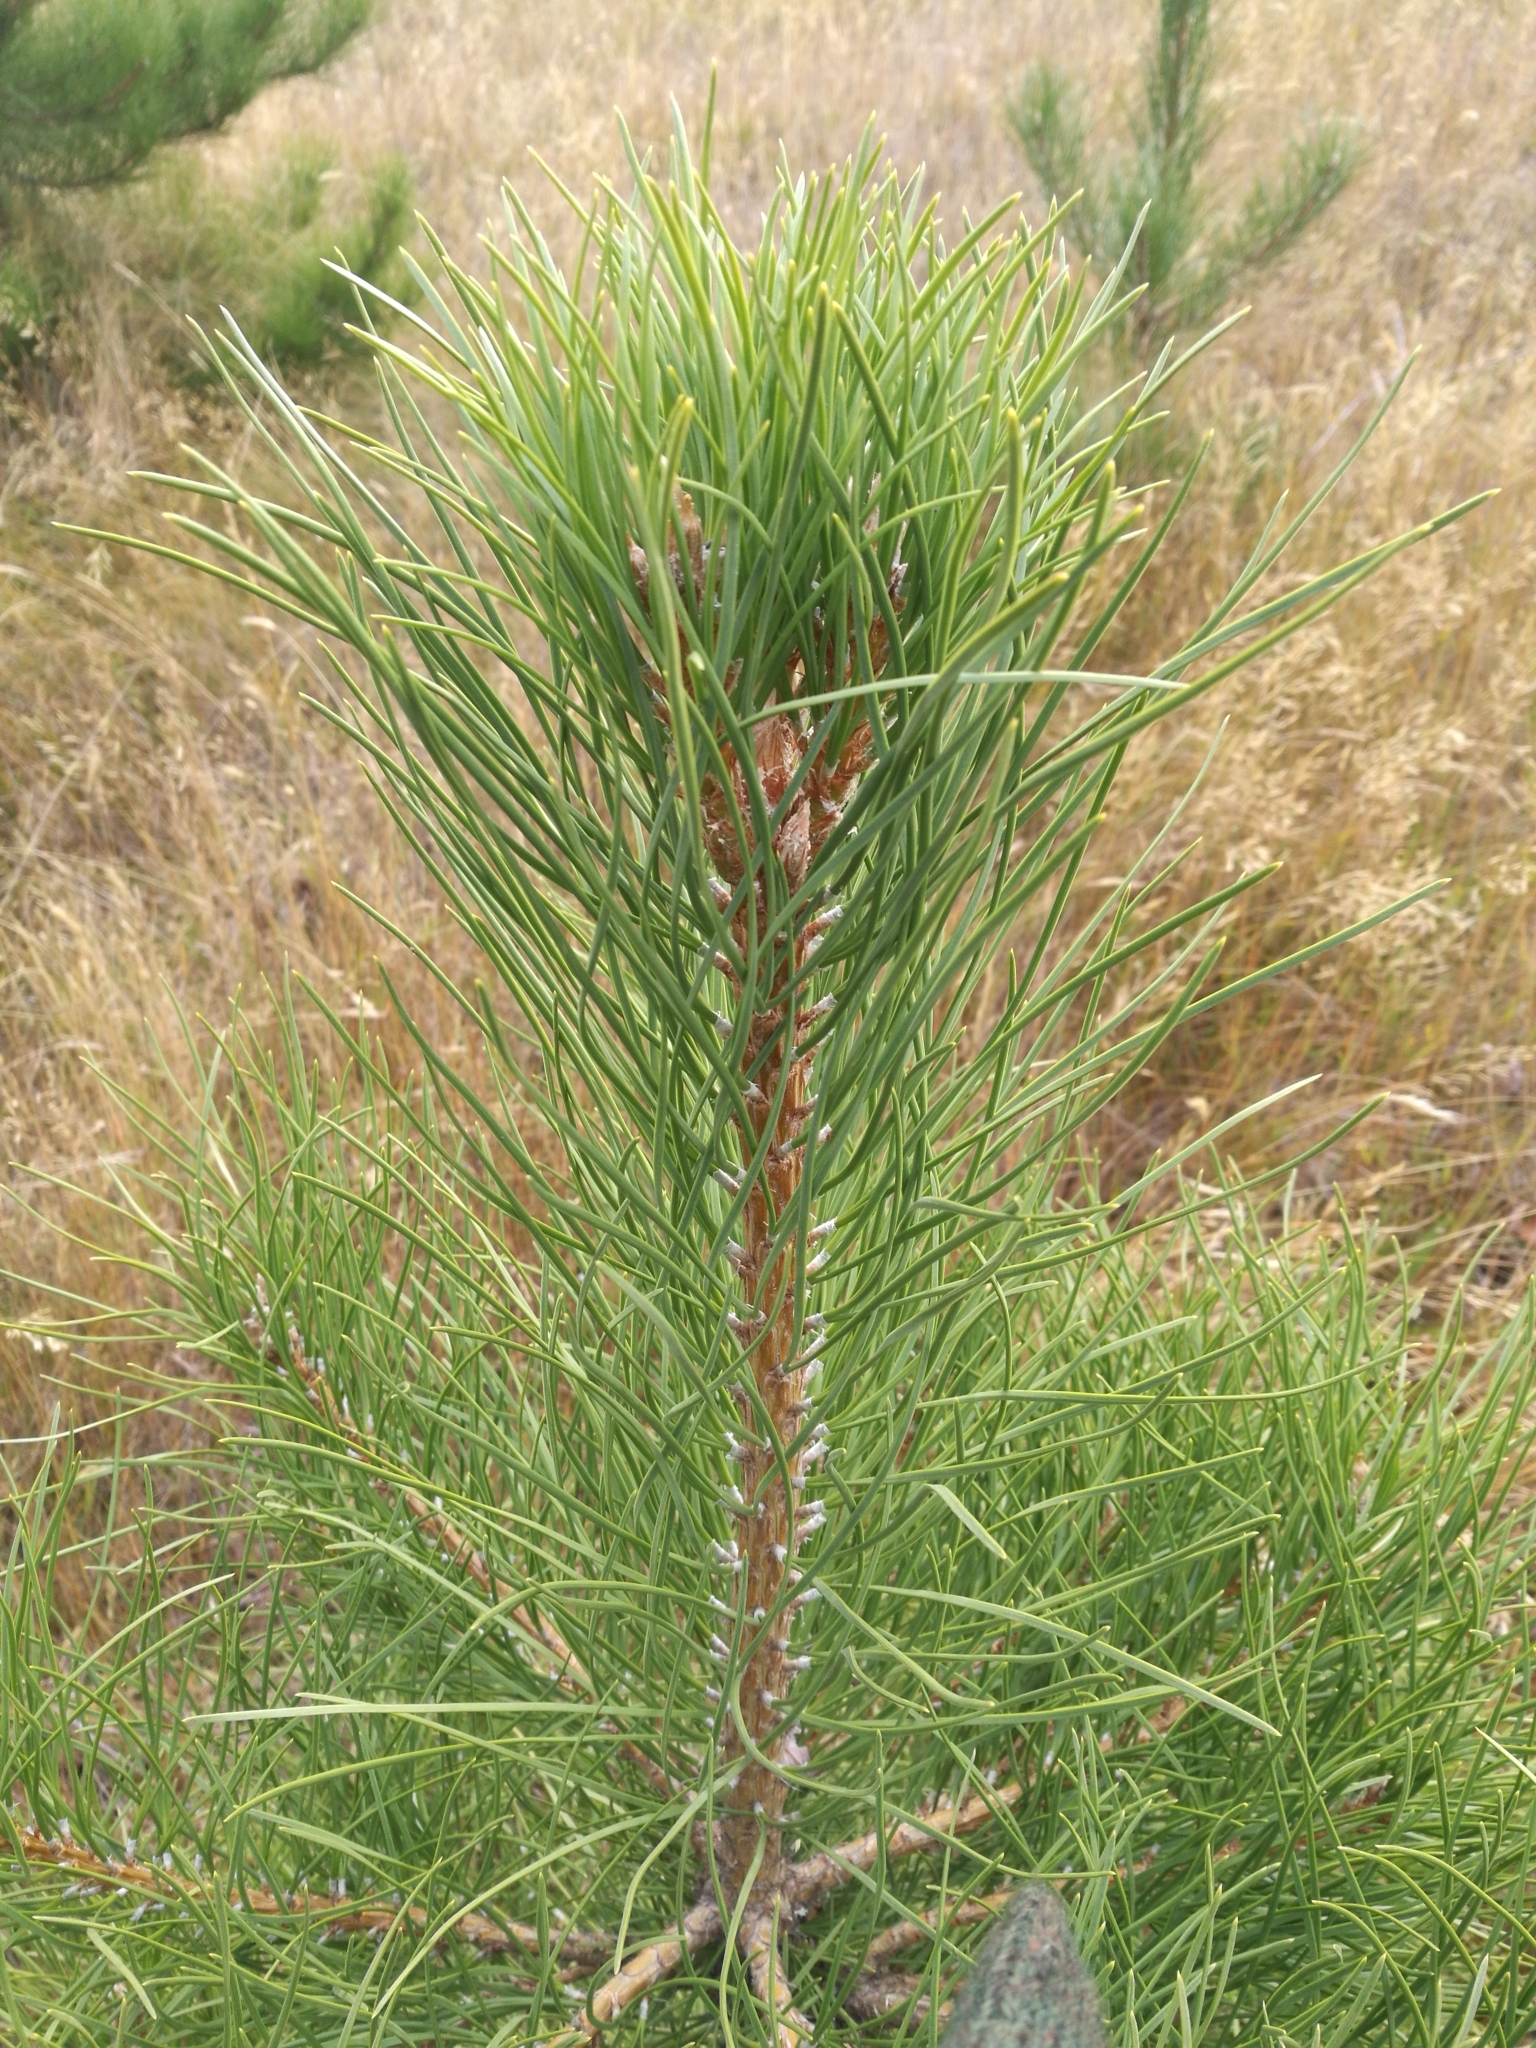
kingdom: Plantae
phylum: Tracheophyta
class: Pinopsida
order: Pinales
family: Pinaceae
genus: Pinus
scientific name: Pinus nigra
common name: Austrian pine
